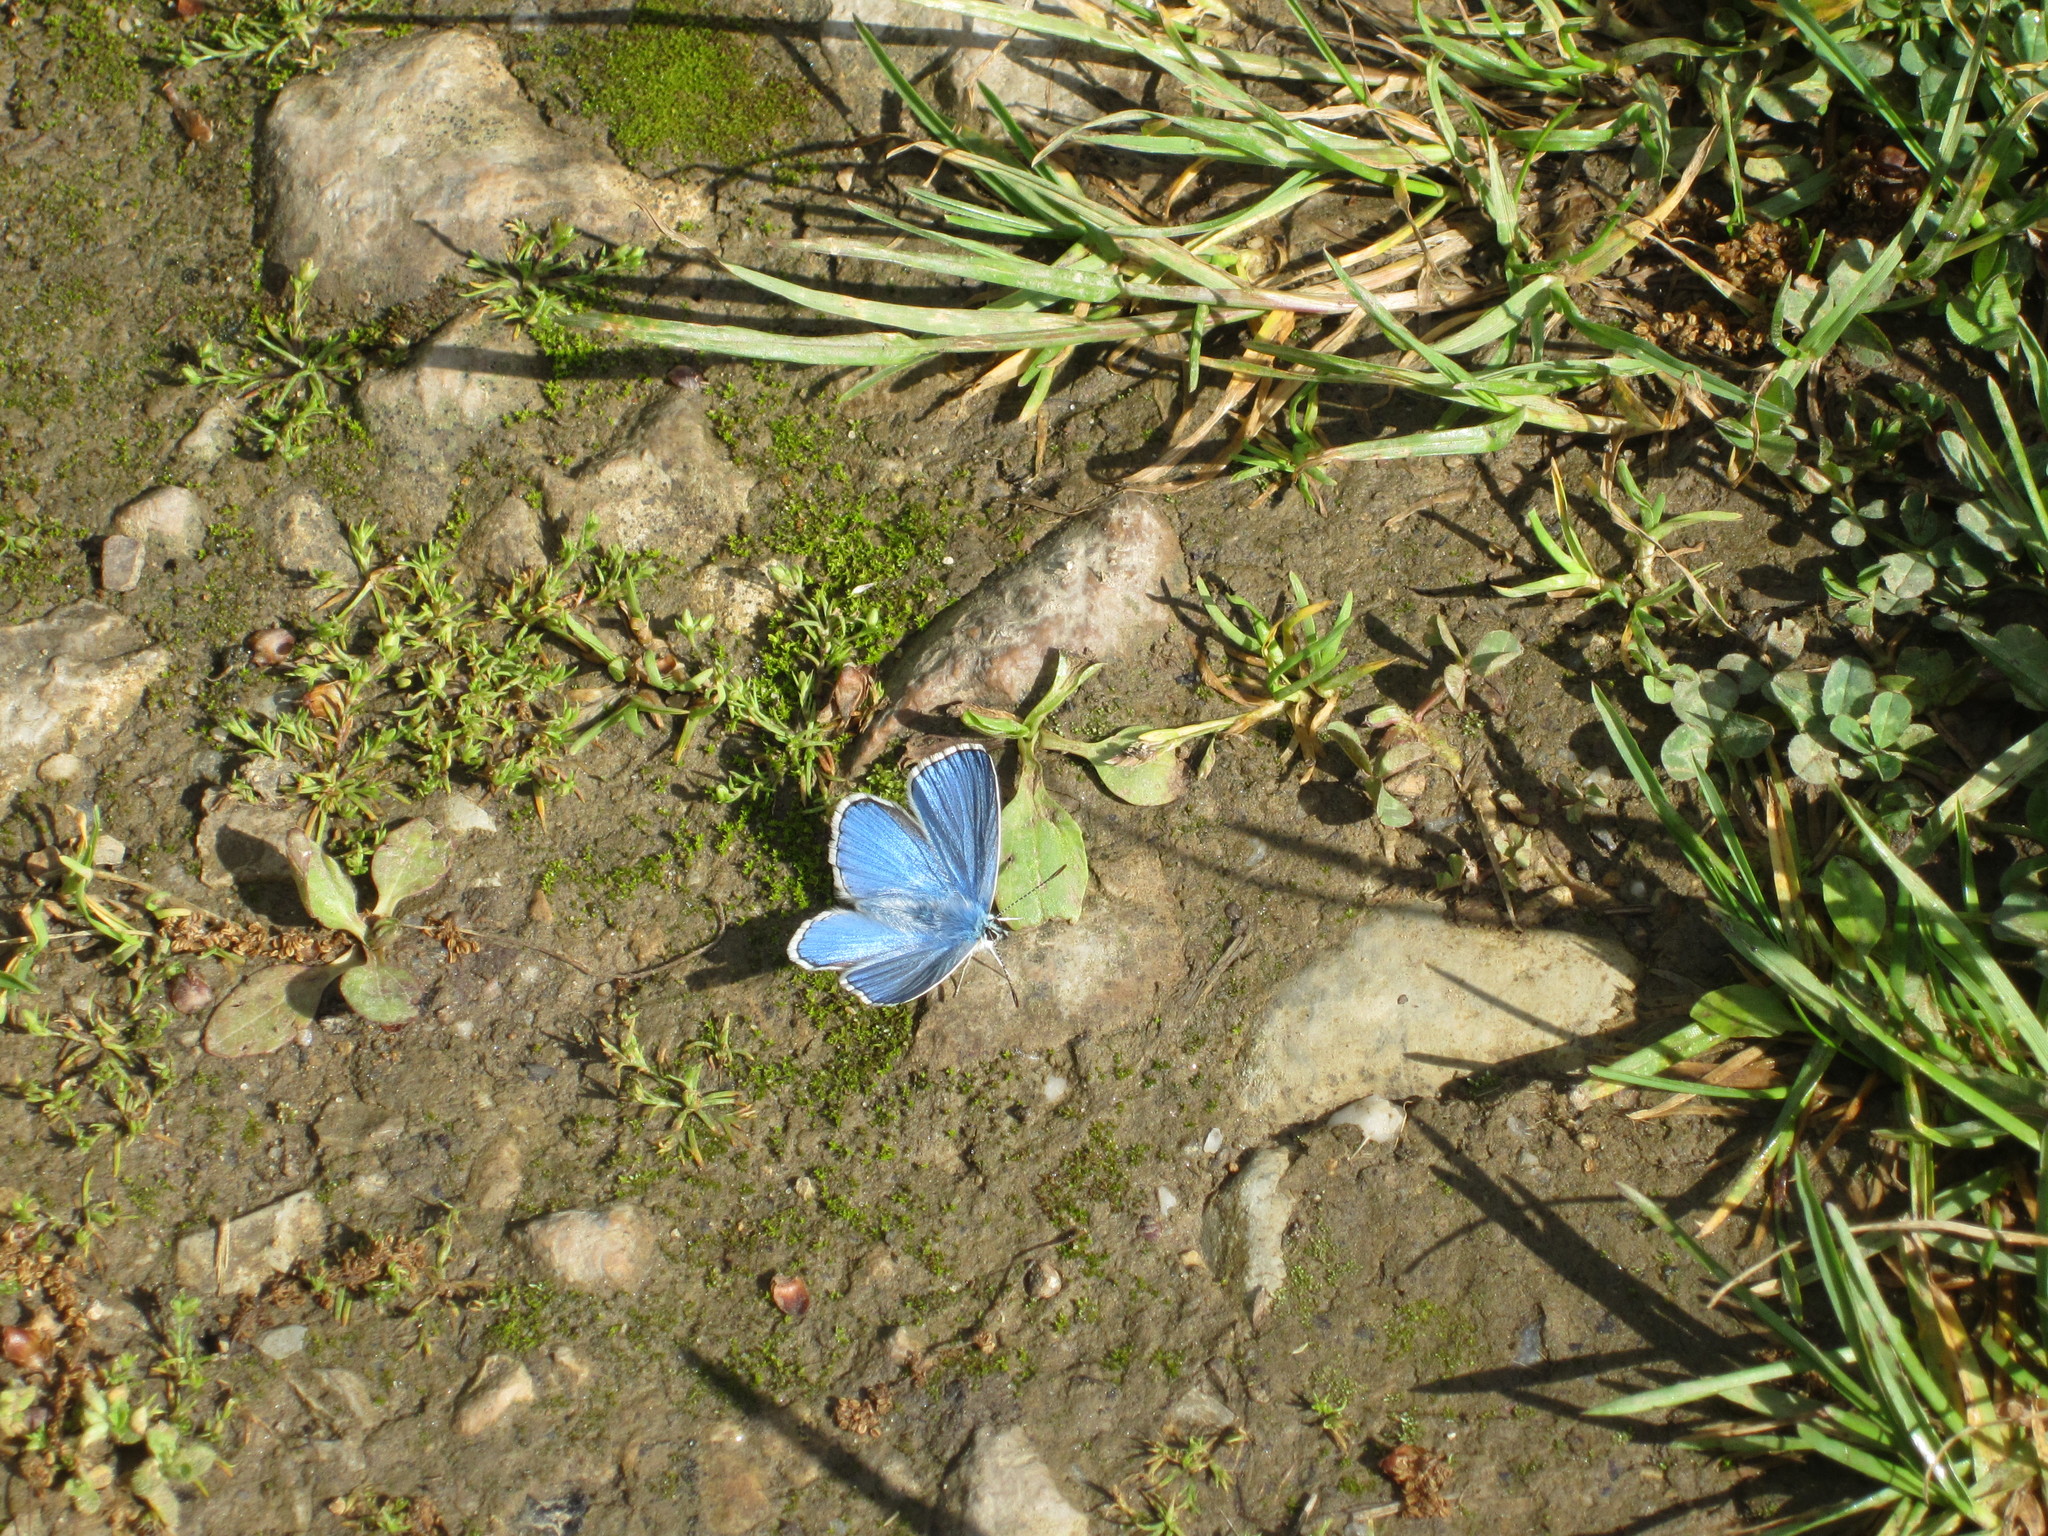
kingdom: Animalia
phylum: Arthropoda
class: Insecta
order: Lepidoptera
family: Lycaenidae
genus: Lysandra
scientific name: Lysandra bellargus
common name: Adonis blue
